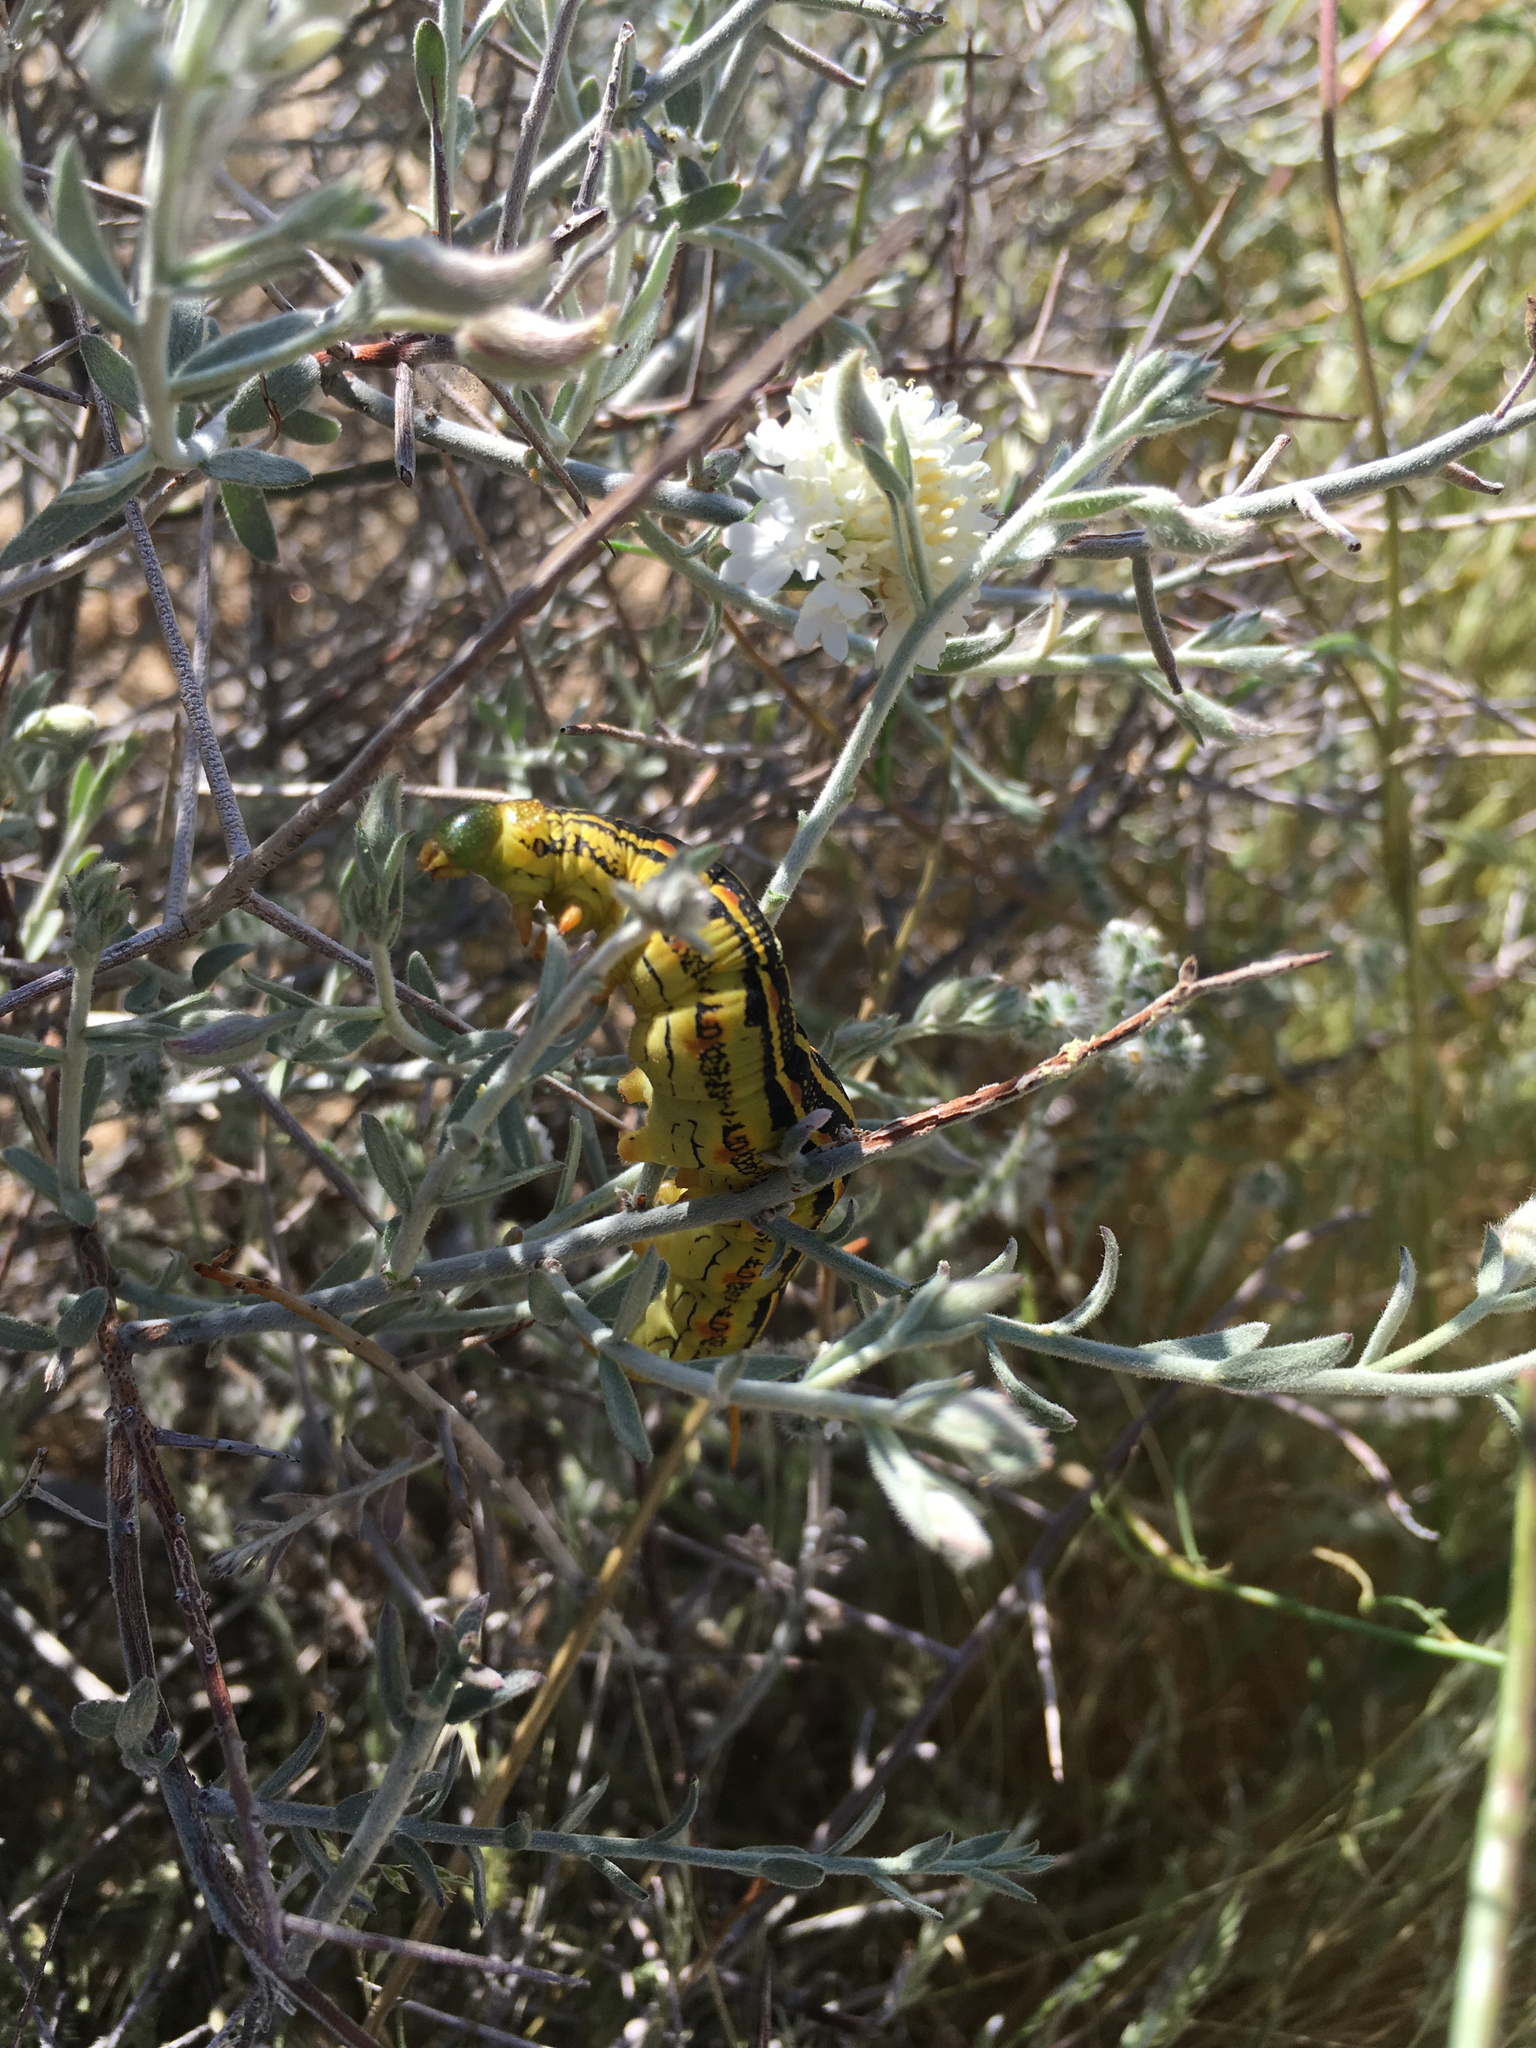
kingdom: Animalia
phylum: Arthropoda
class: Insecta
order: Lepidoptera
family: Sphingidae
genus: Hyles
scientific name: Hyles lineata
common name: White-lined sphinx
